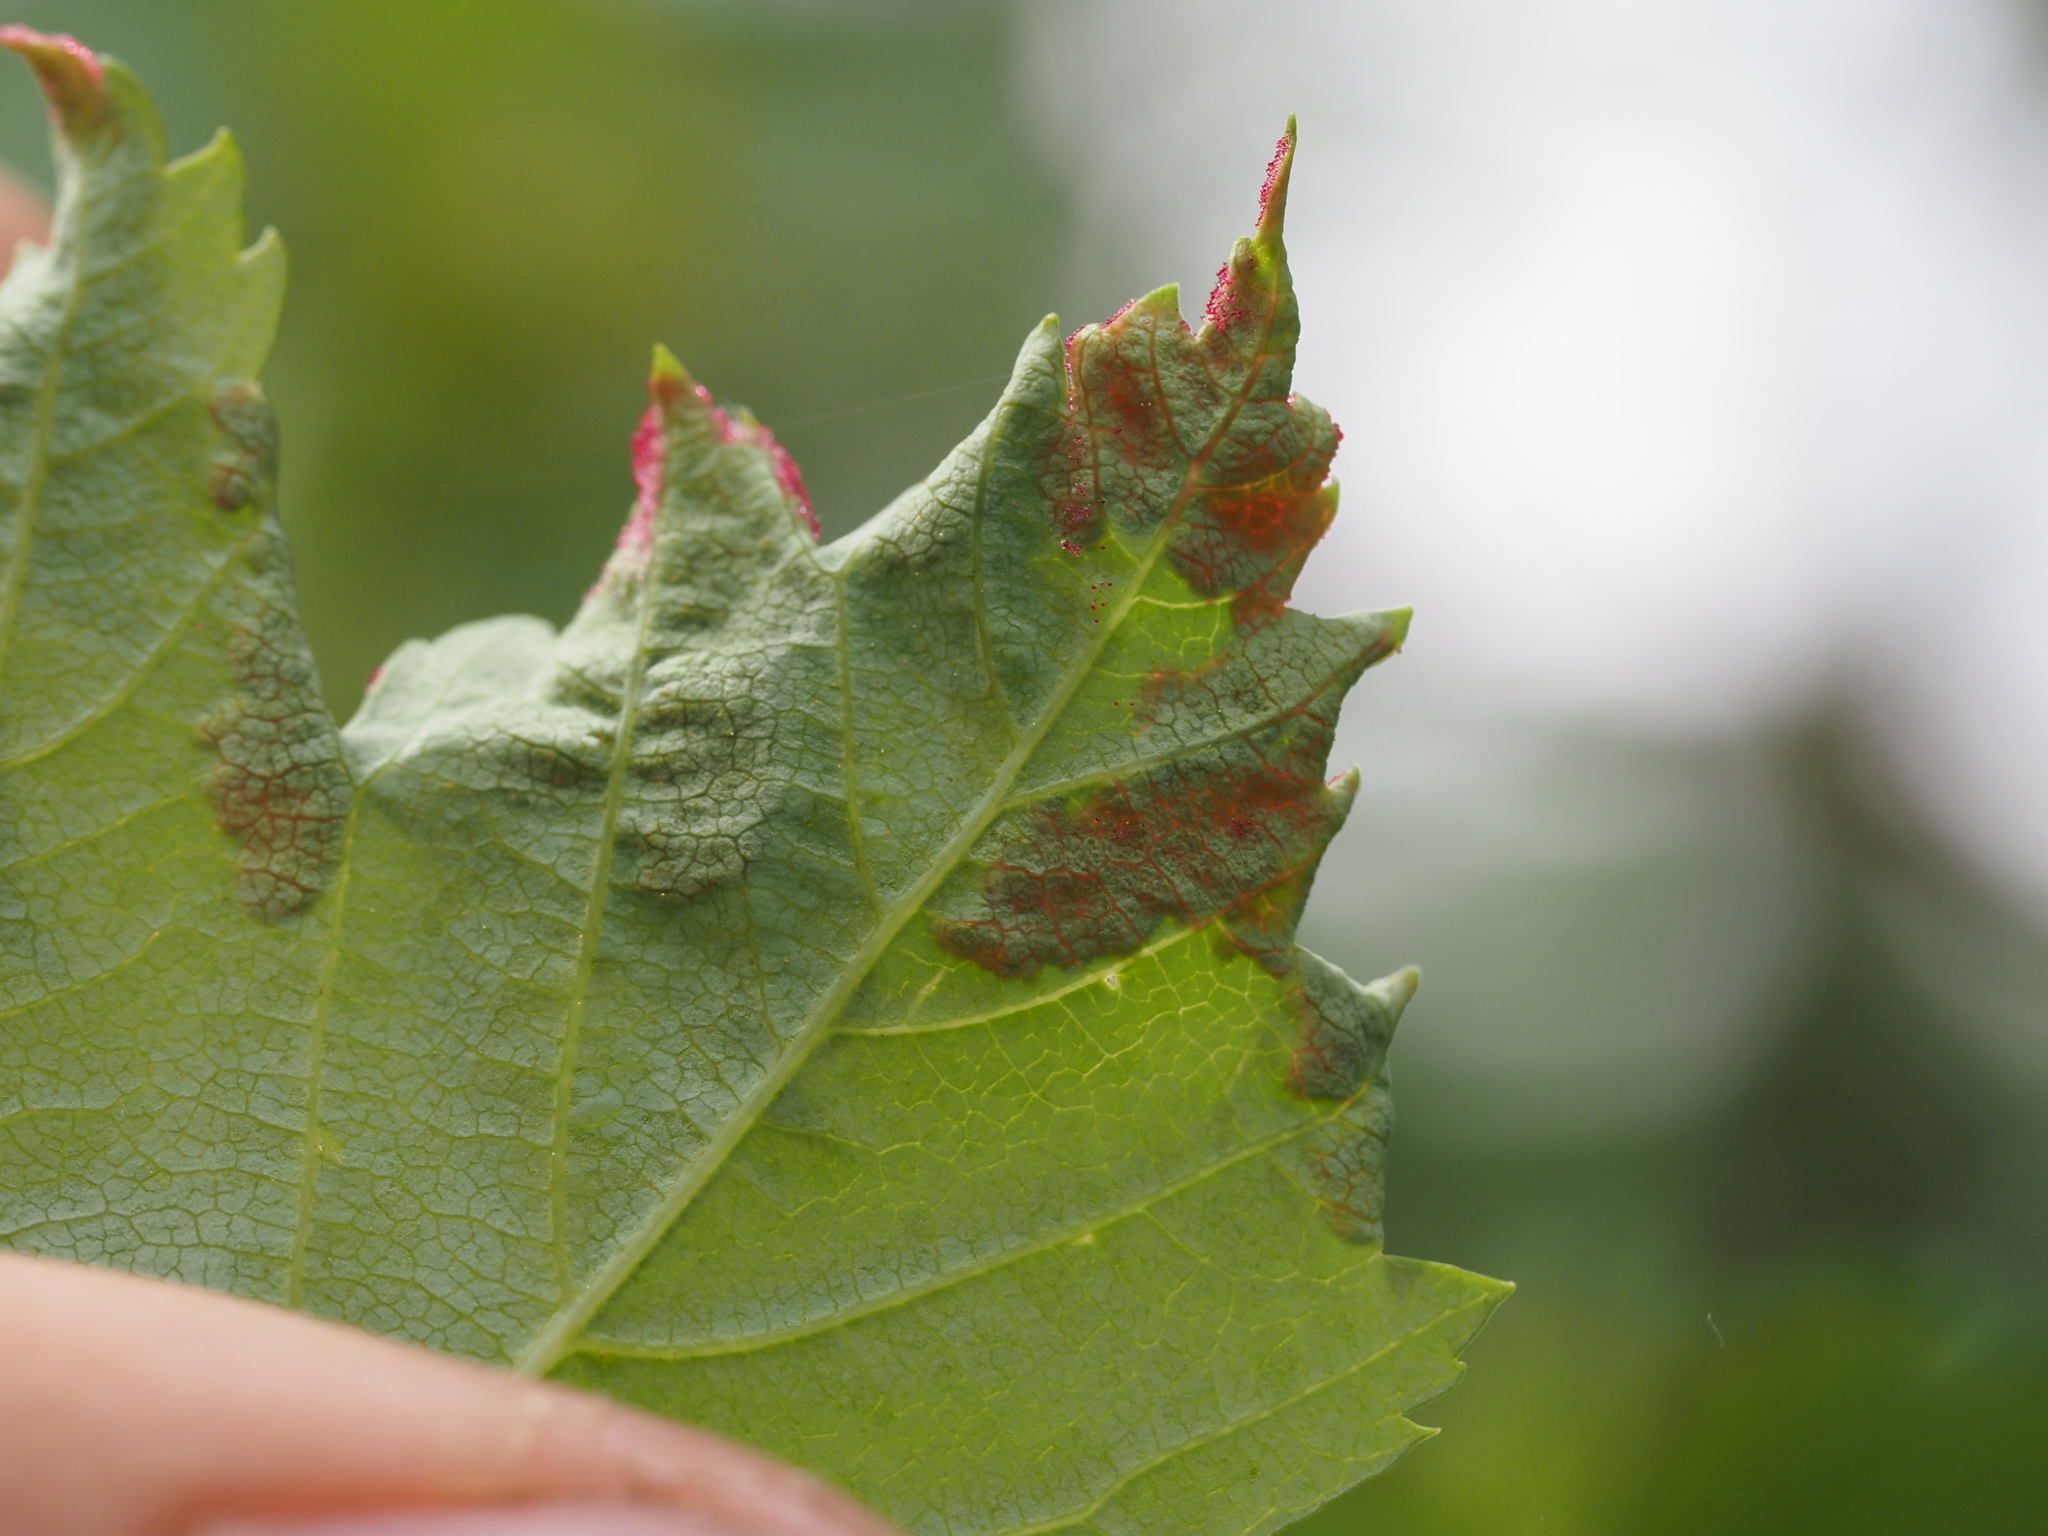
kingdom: Animalia
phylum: Arthropoda
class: Arachnida
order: Trombidiformes
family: Eriophyidae
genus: Aceria
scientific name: Aceria
